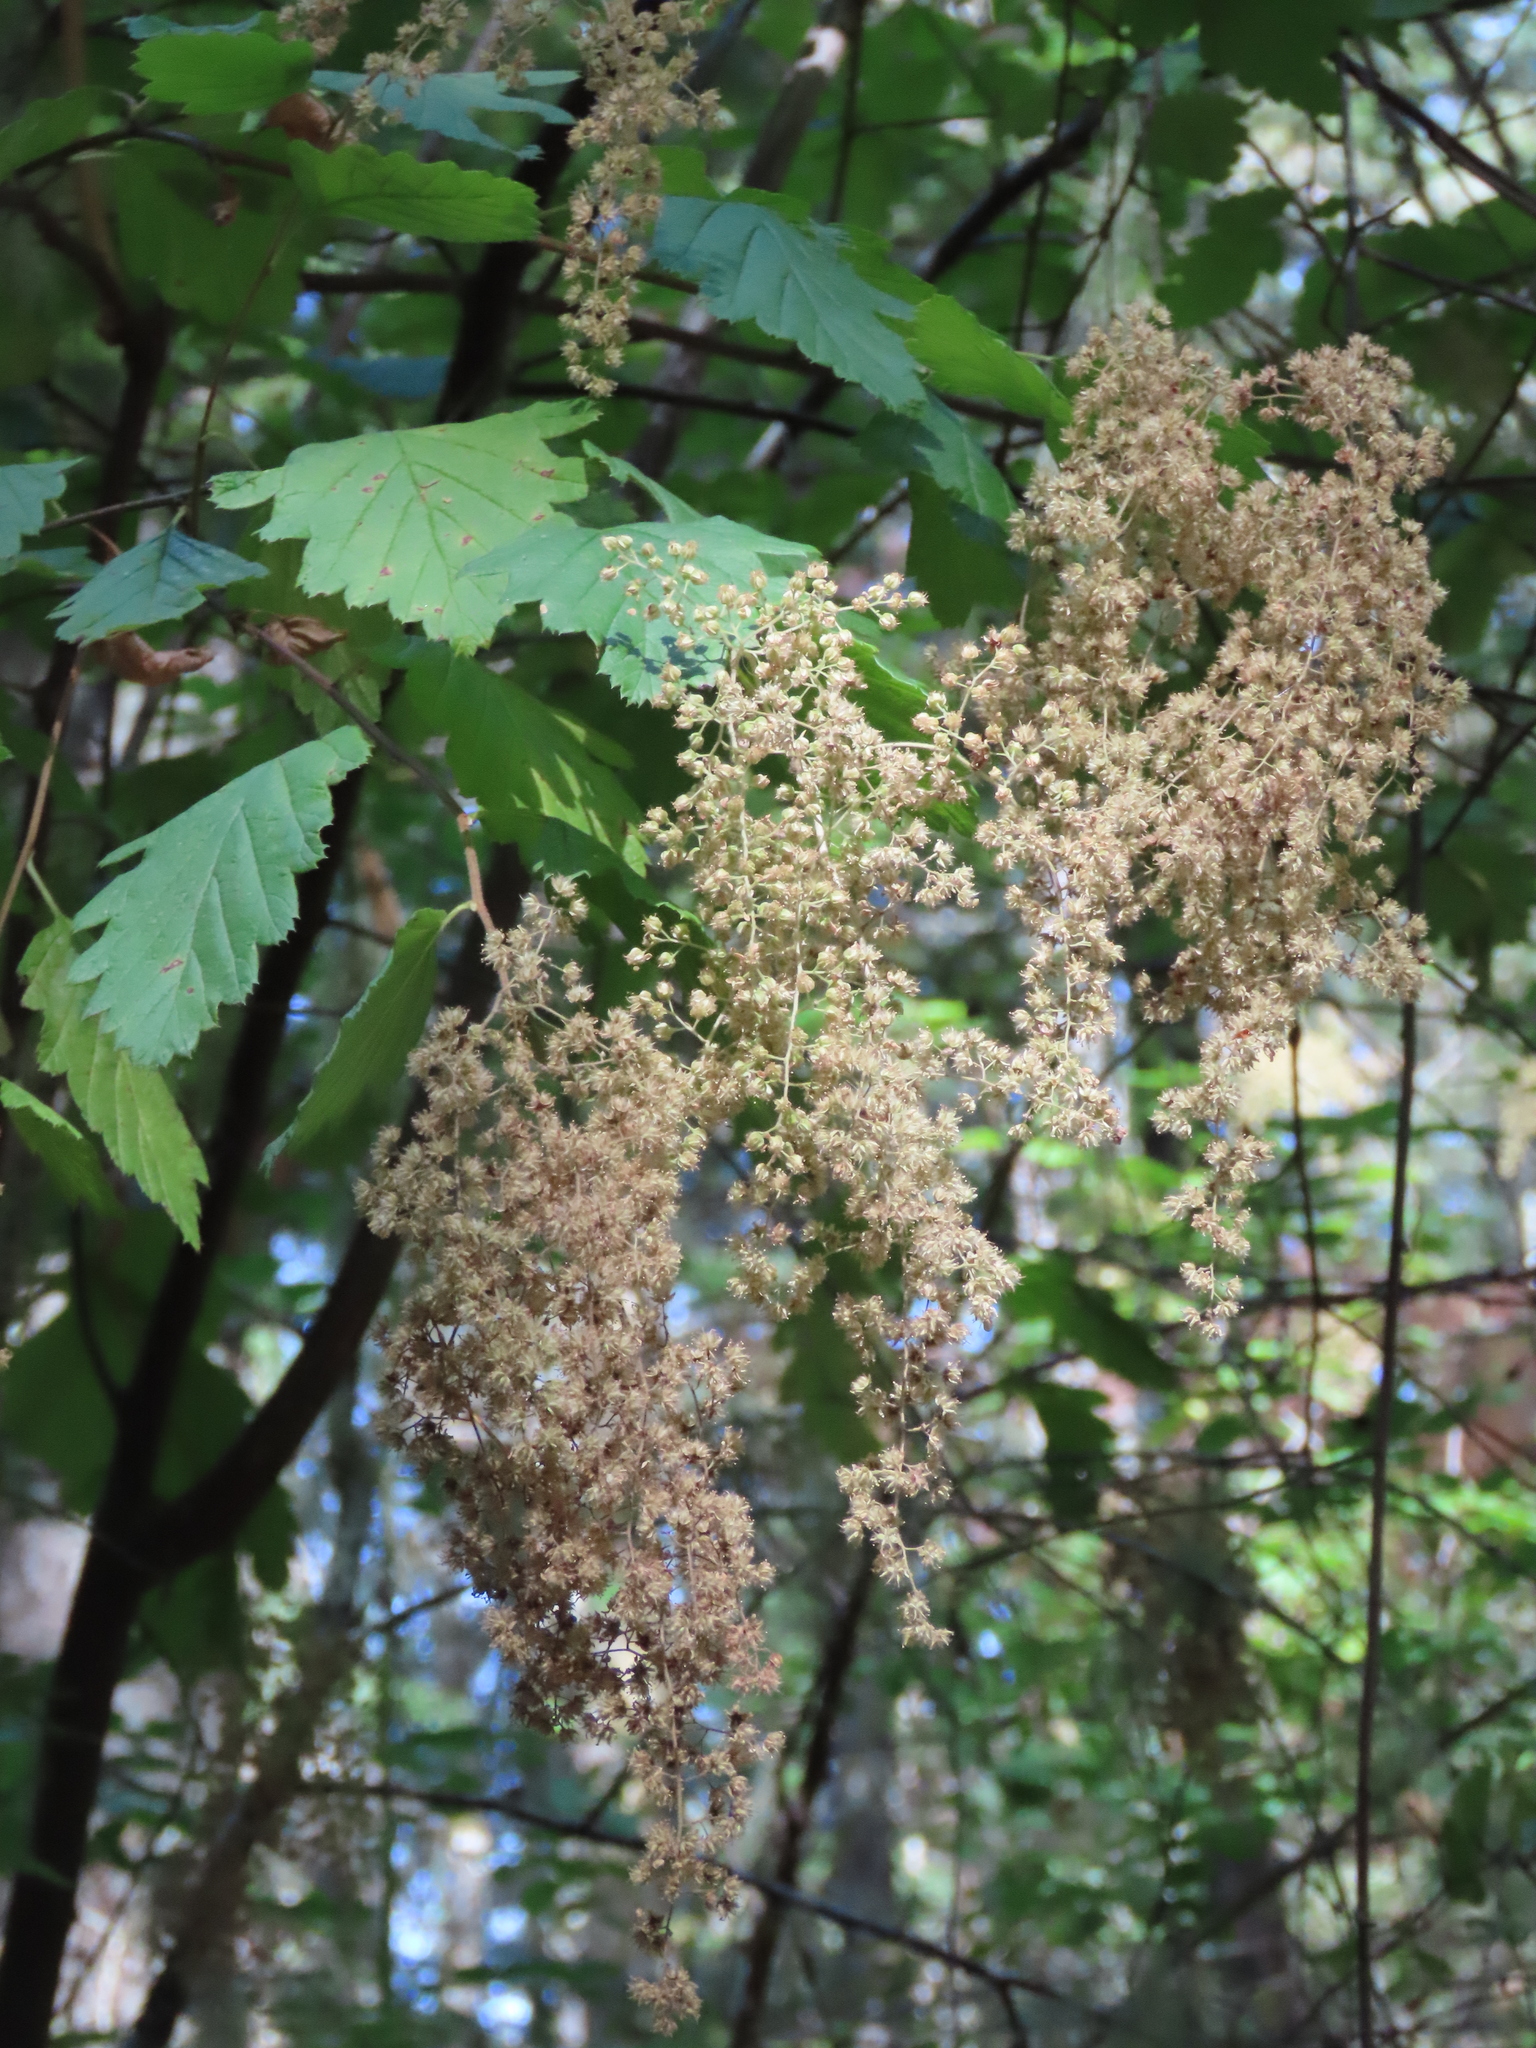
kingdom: Plantae
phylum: Tracheophyta
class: Magnoliopsida
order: Rosales
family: Rosaceae
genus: Holodiscus
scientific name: Holodiscus discolor
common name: Oceanspray
